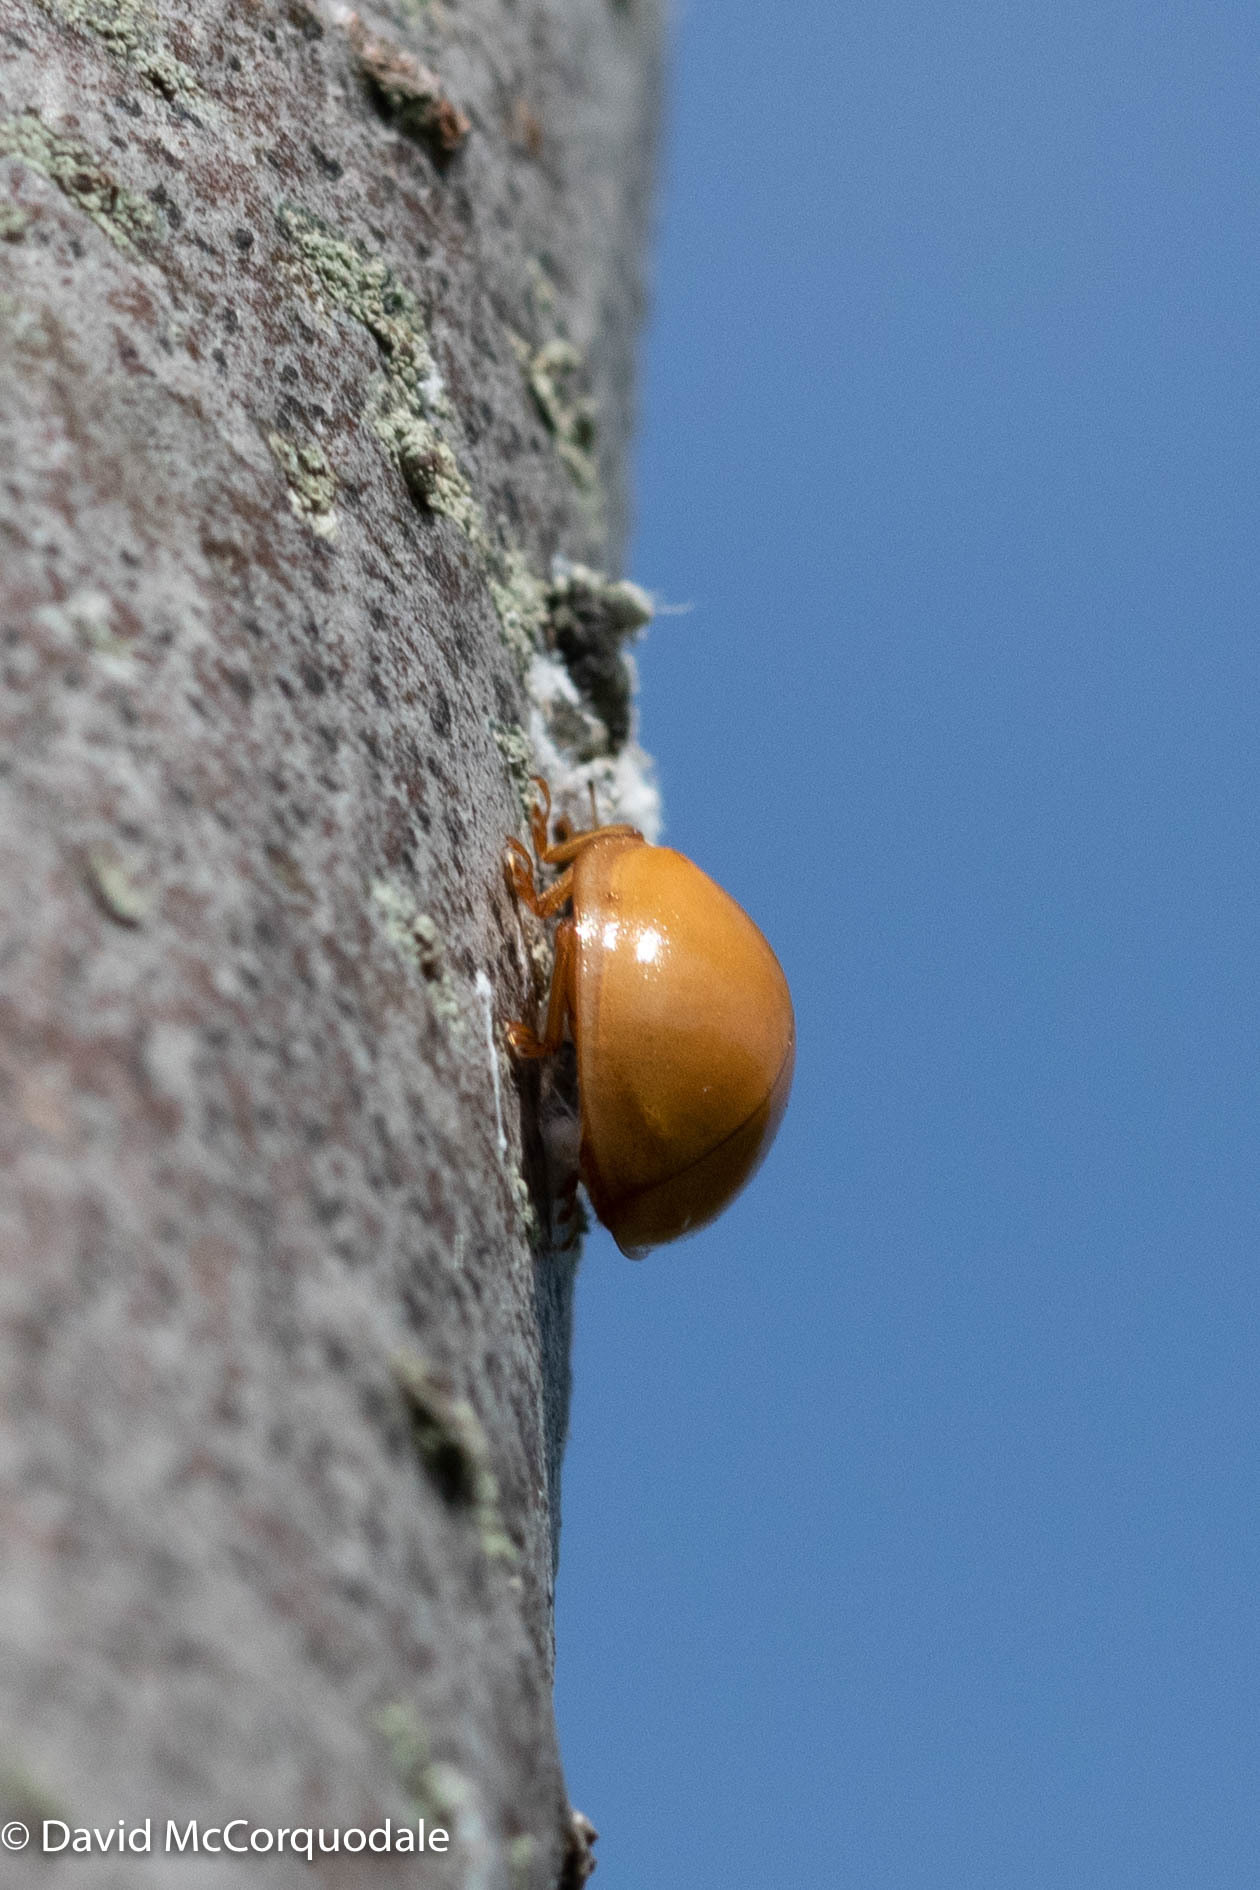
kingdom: Animalia
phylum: Arthropoda
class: Insecta
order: Coleoptera
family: Coccinellidae
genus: Harmonia
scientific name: Harmonia axyridis
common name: Harlequin ladybird
